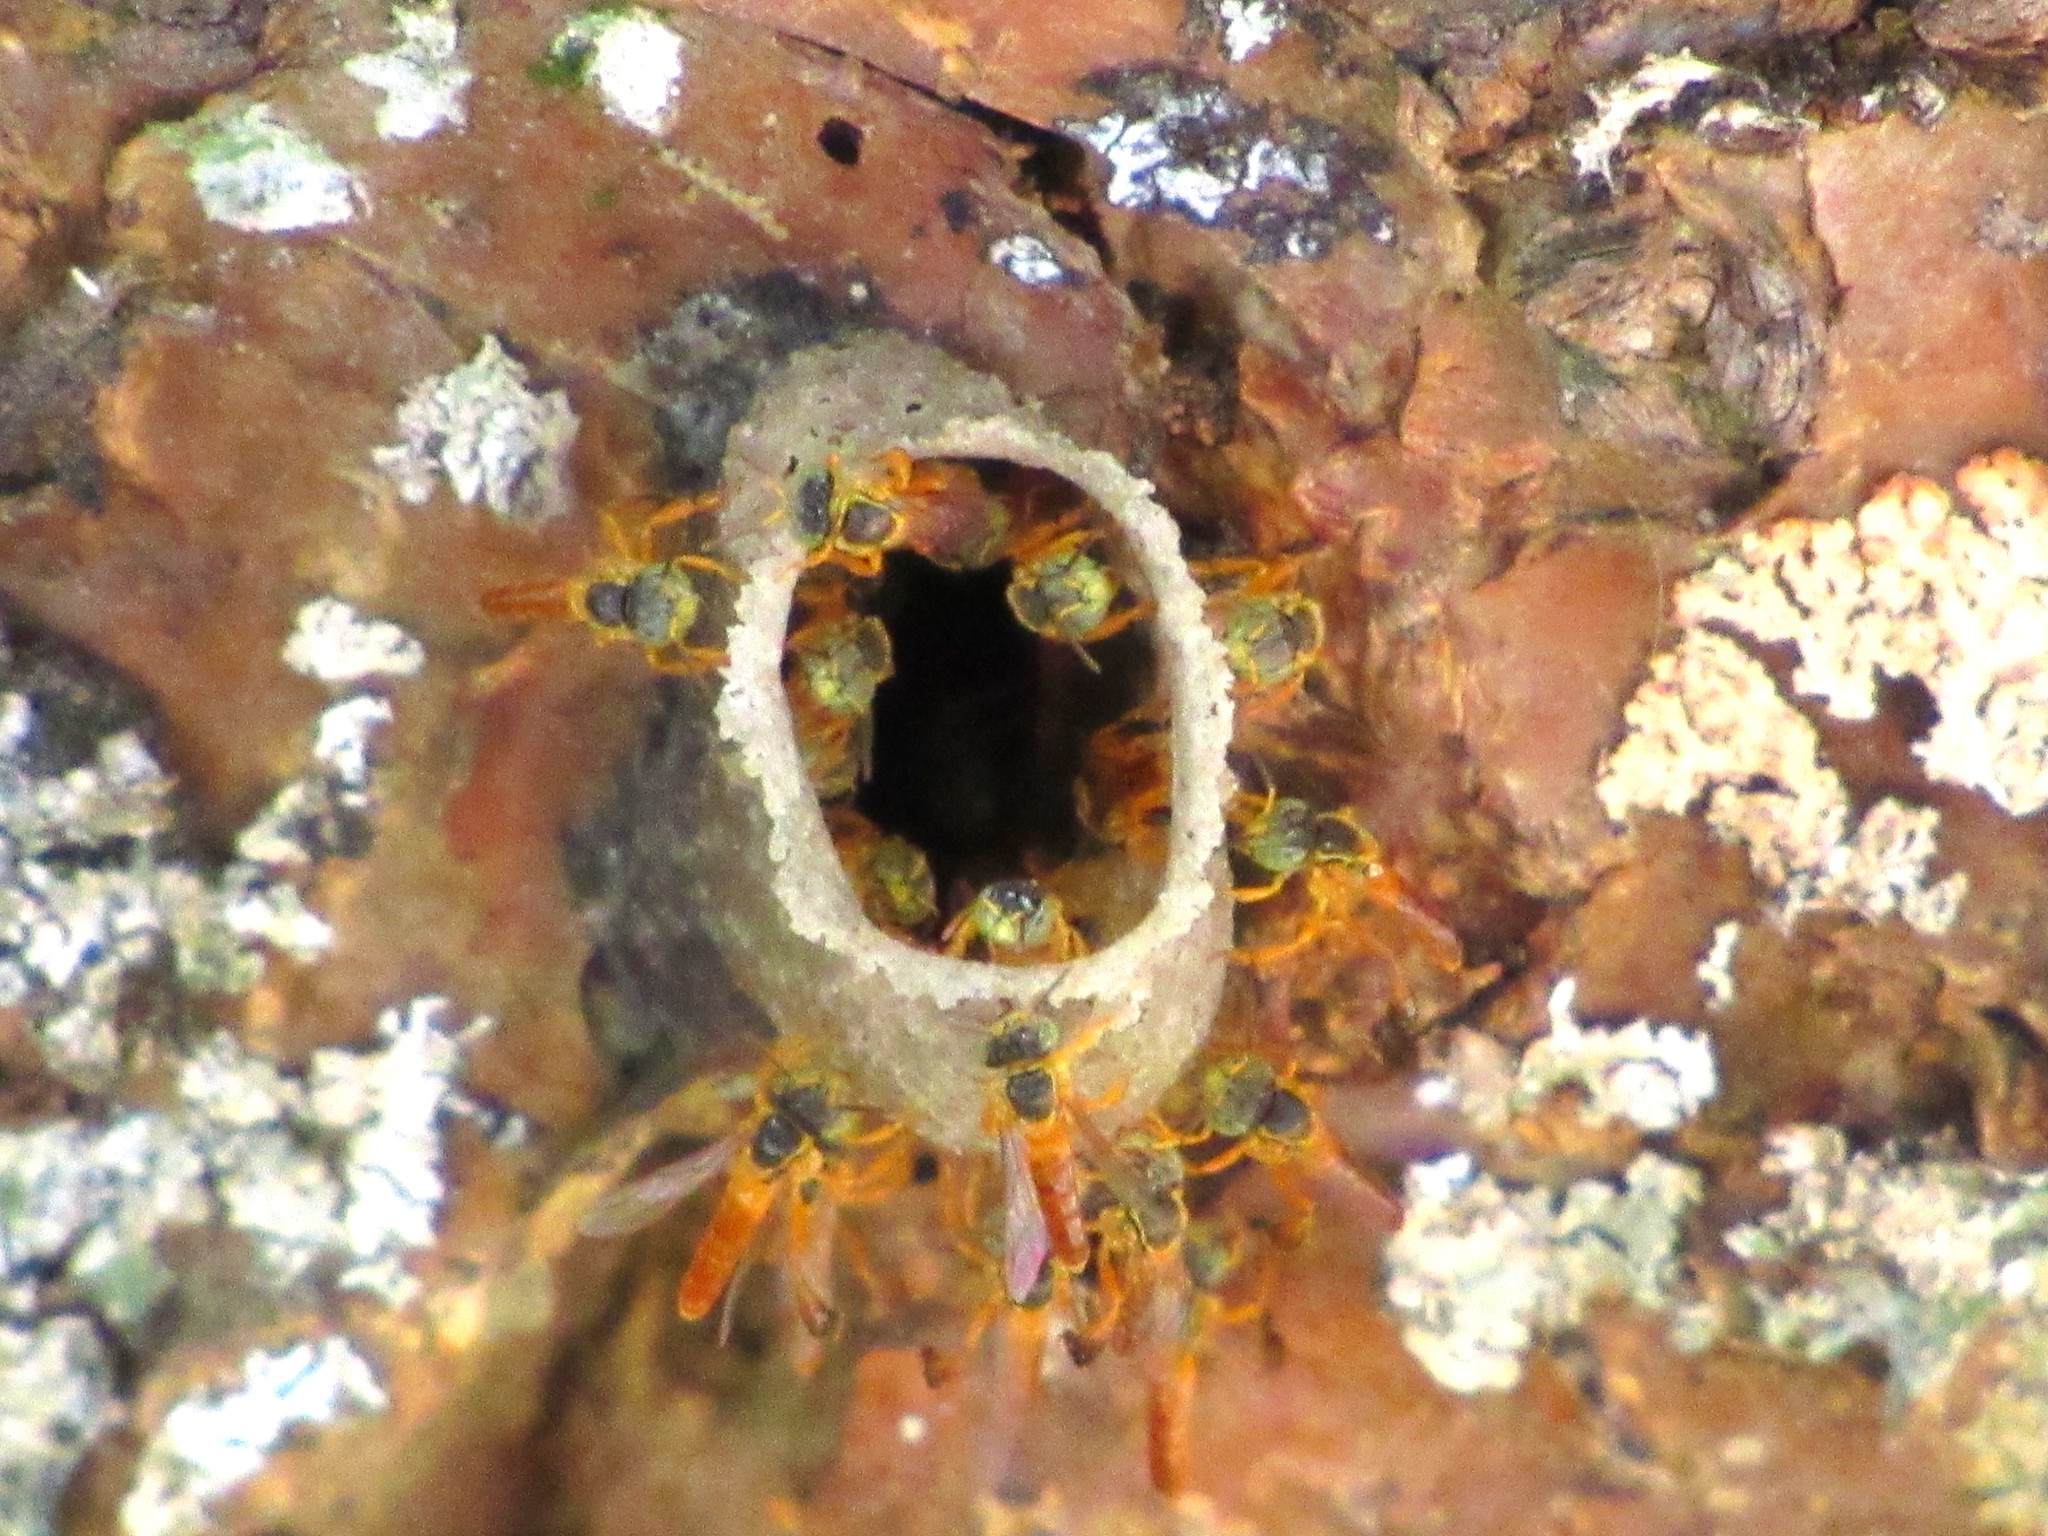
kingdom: Animalia
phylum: Arthropoda
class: Insecta
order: Hymenoptera
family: Apidae
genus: Tetragonisca
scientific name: Tetragonisca fiebrigi
